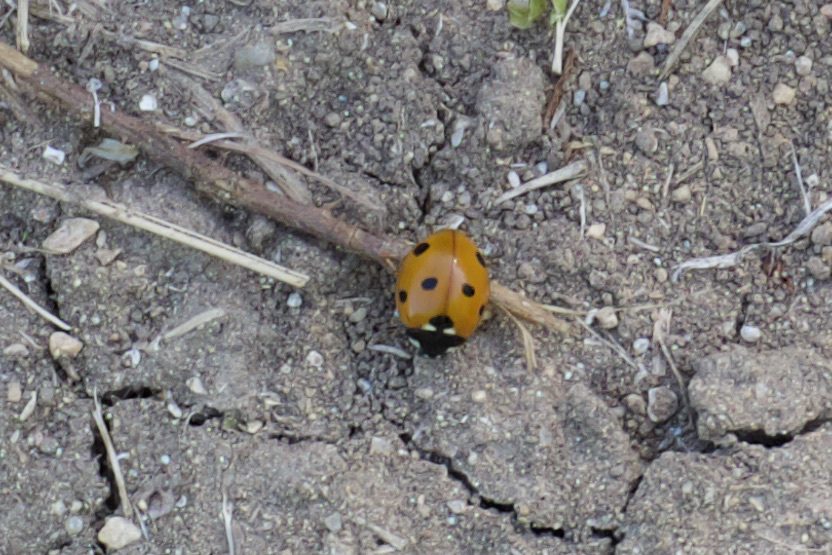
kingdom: Animalia
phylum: Arthropoda
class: Insecta
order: Coleoptera
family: Coccinellidae
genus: Coccinella
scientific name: Coccinella septempunctata
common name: Sevenspotted lady beetle
